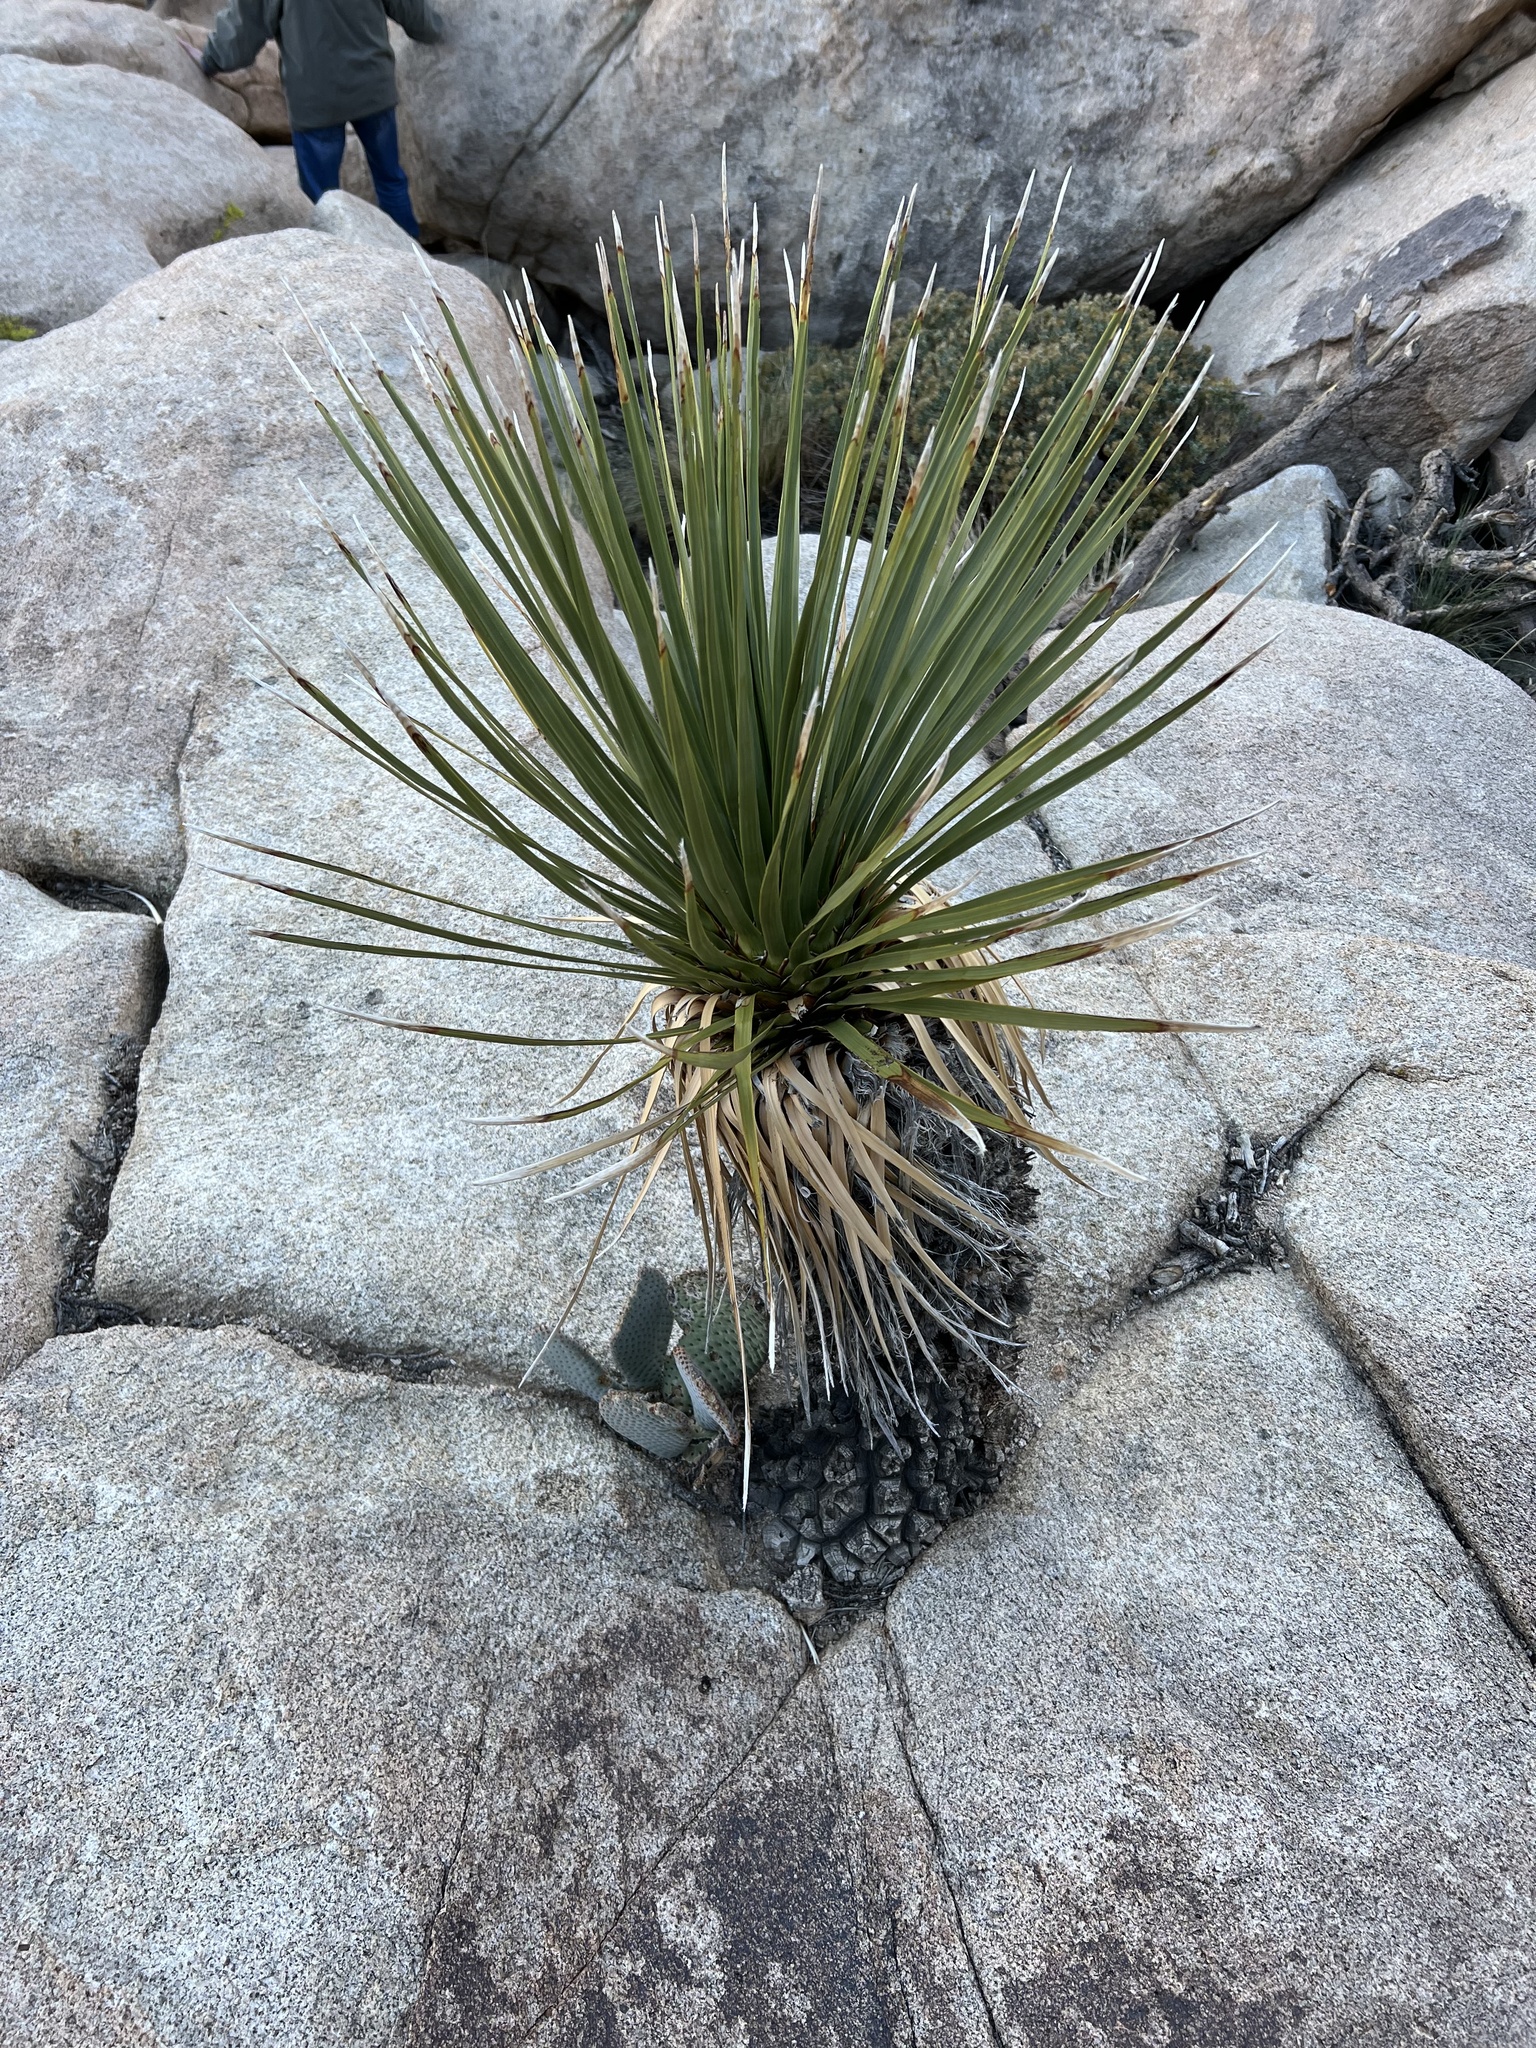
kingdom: Plantae
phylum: Tracheophyta
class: Liliopsida
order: Asparagales
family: Asparagaceae
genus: Nolina
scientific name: Nolina parryi
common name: Parry nolina
